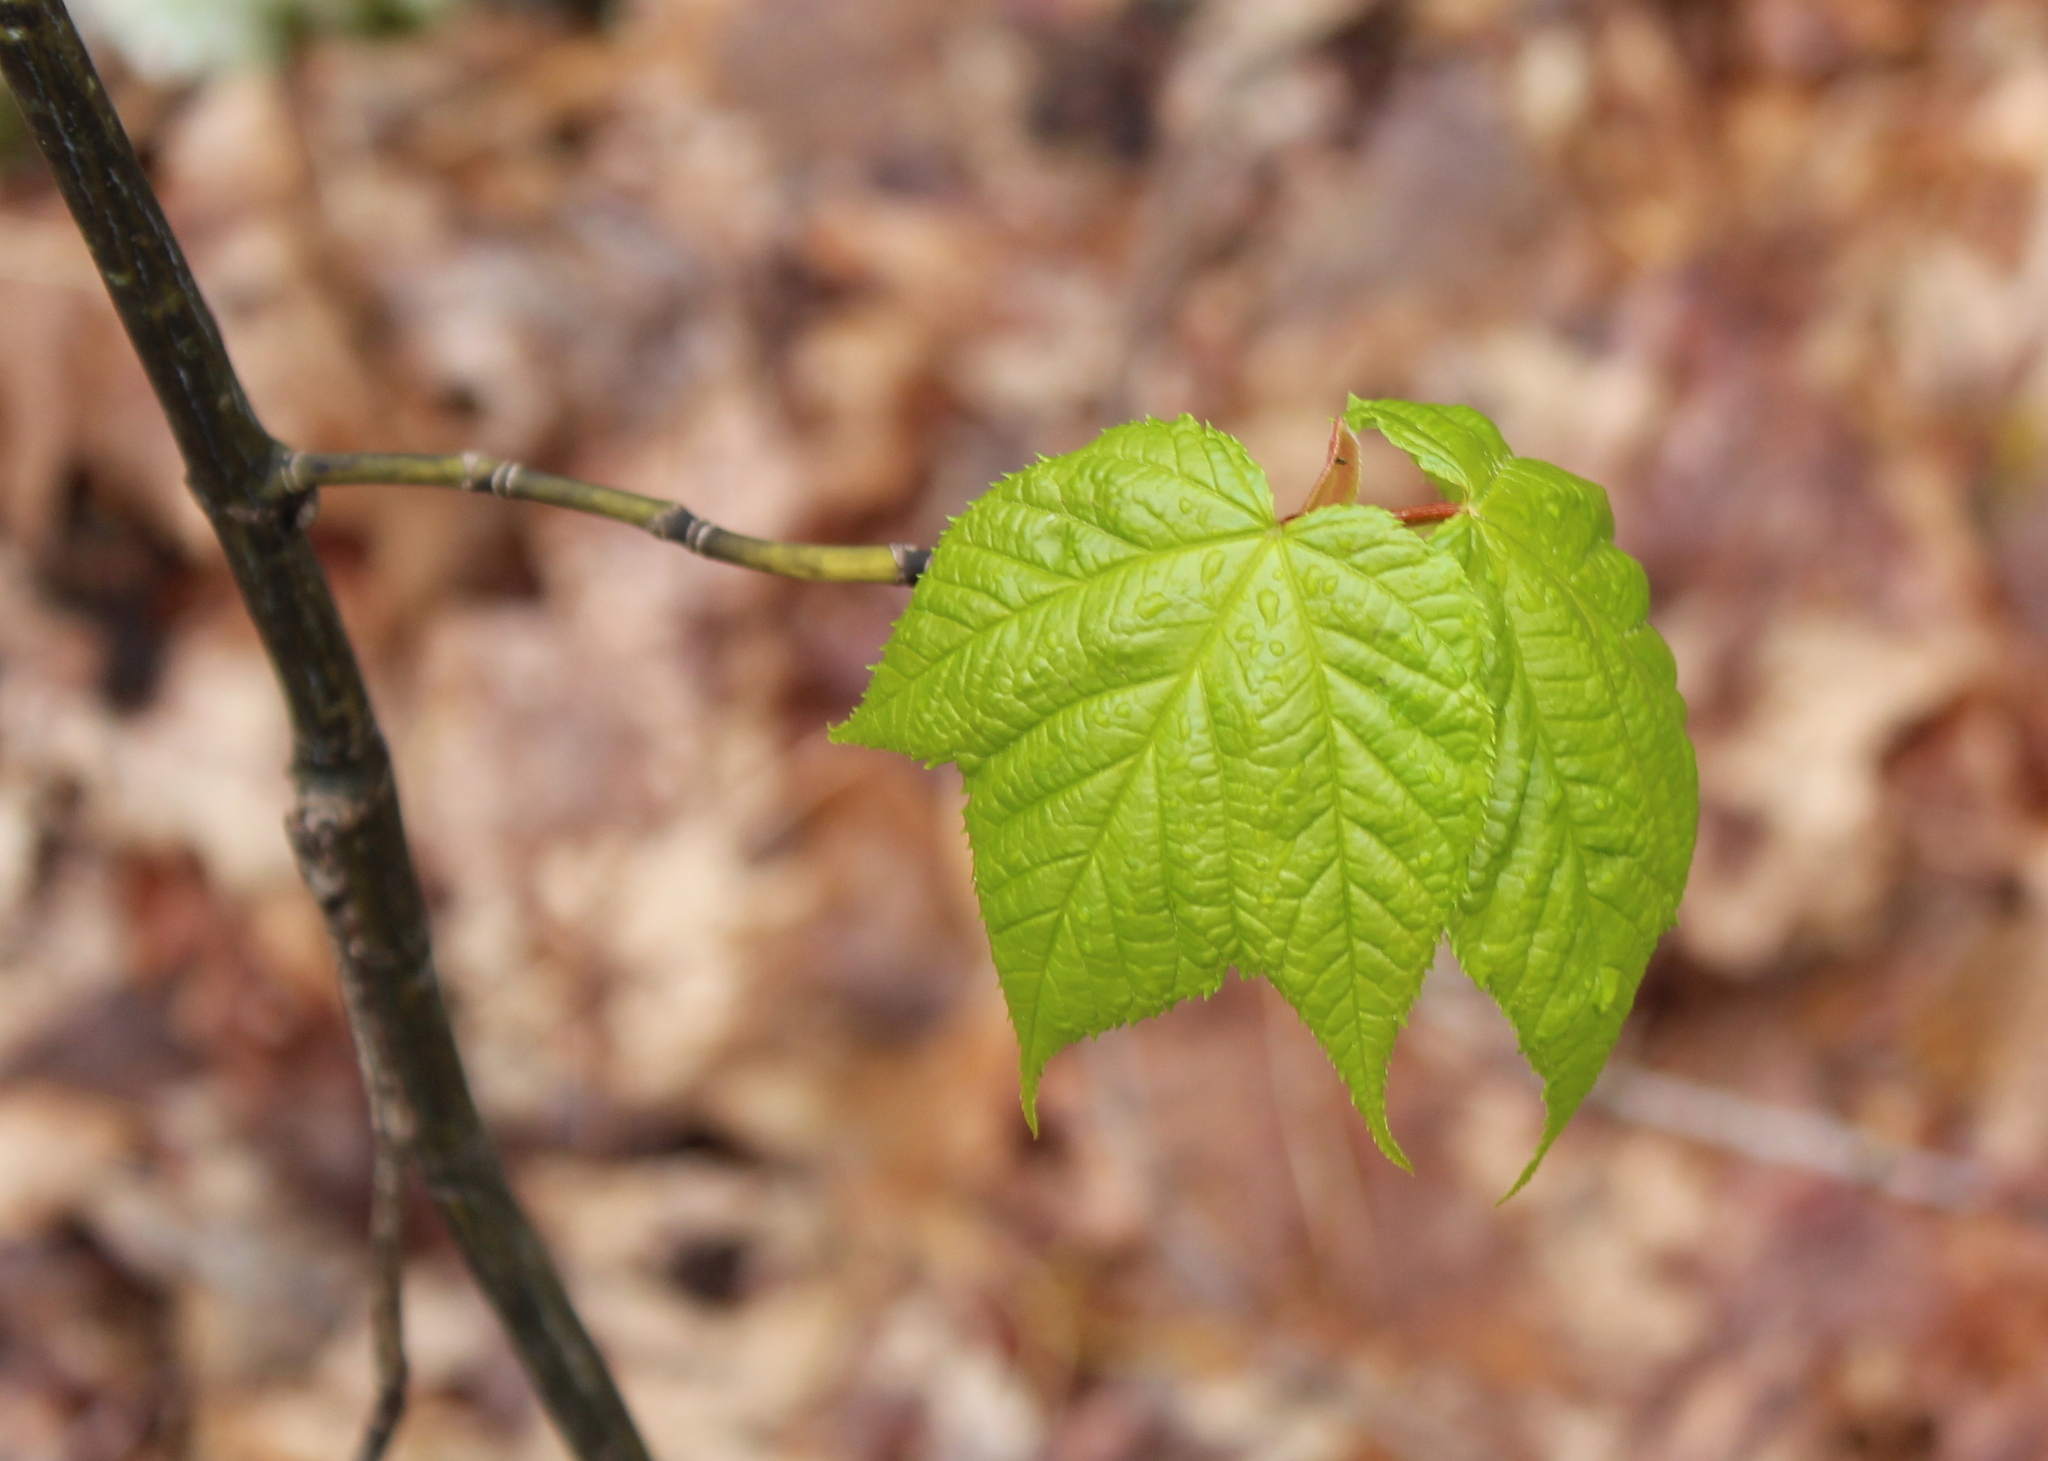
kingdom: Plantae
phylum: Tracheophyta
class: Magnoliopsida
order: Sapindales
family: Sapindaceae
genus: Acer
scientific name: Acer pensylvanicum
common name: Moosewood
